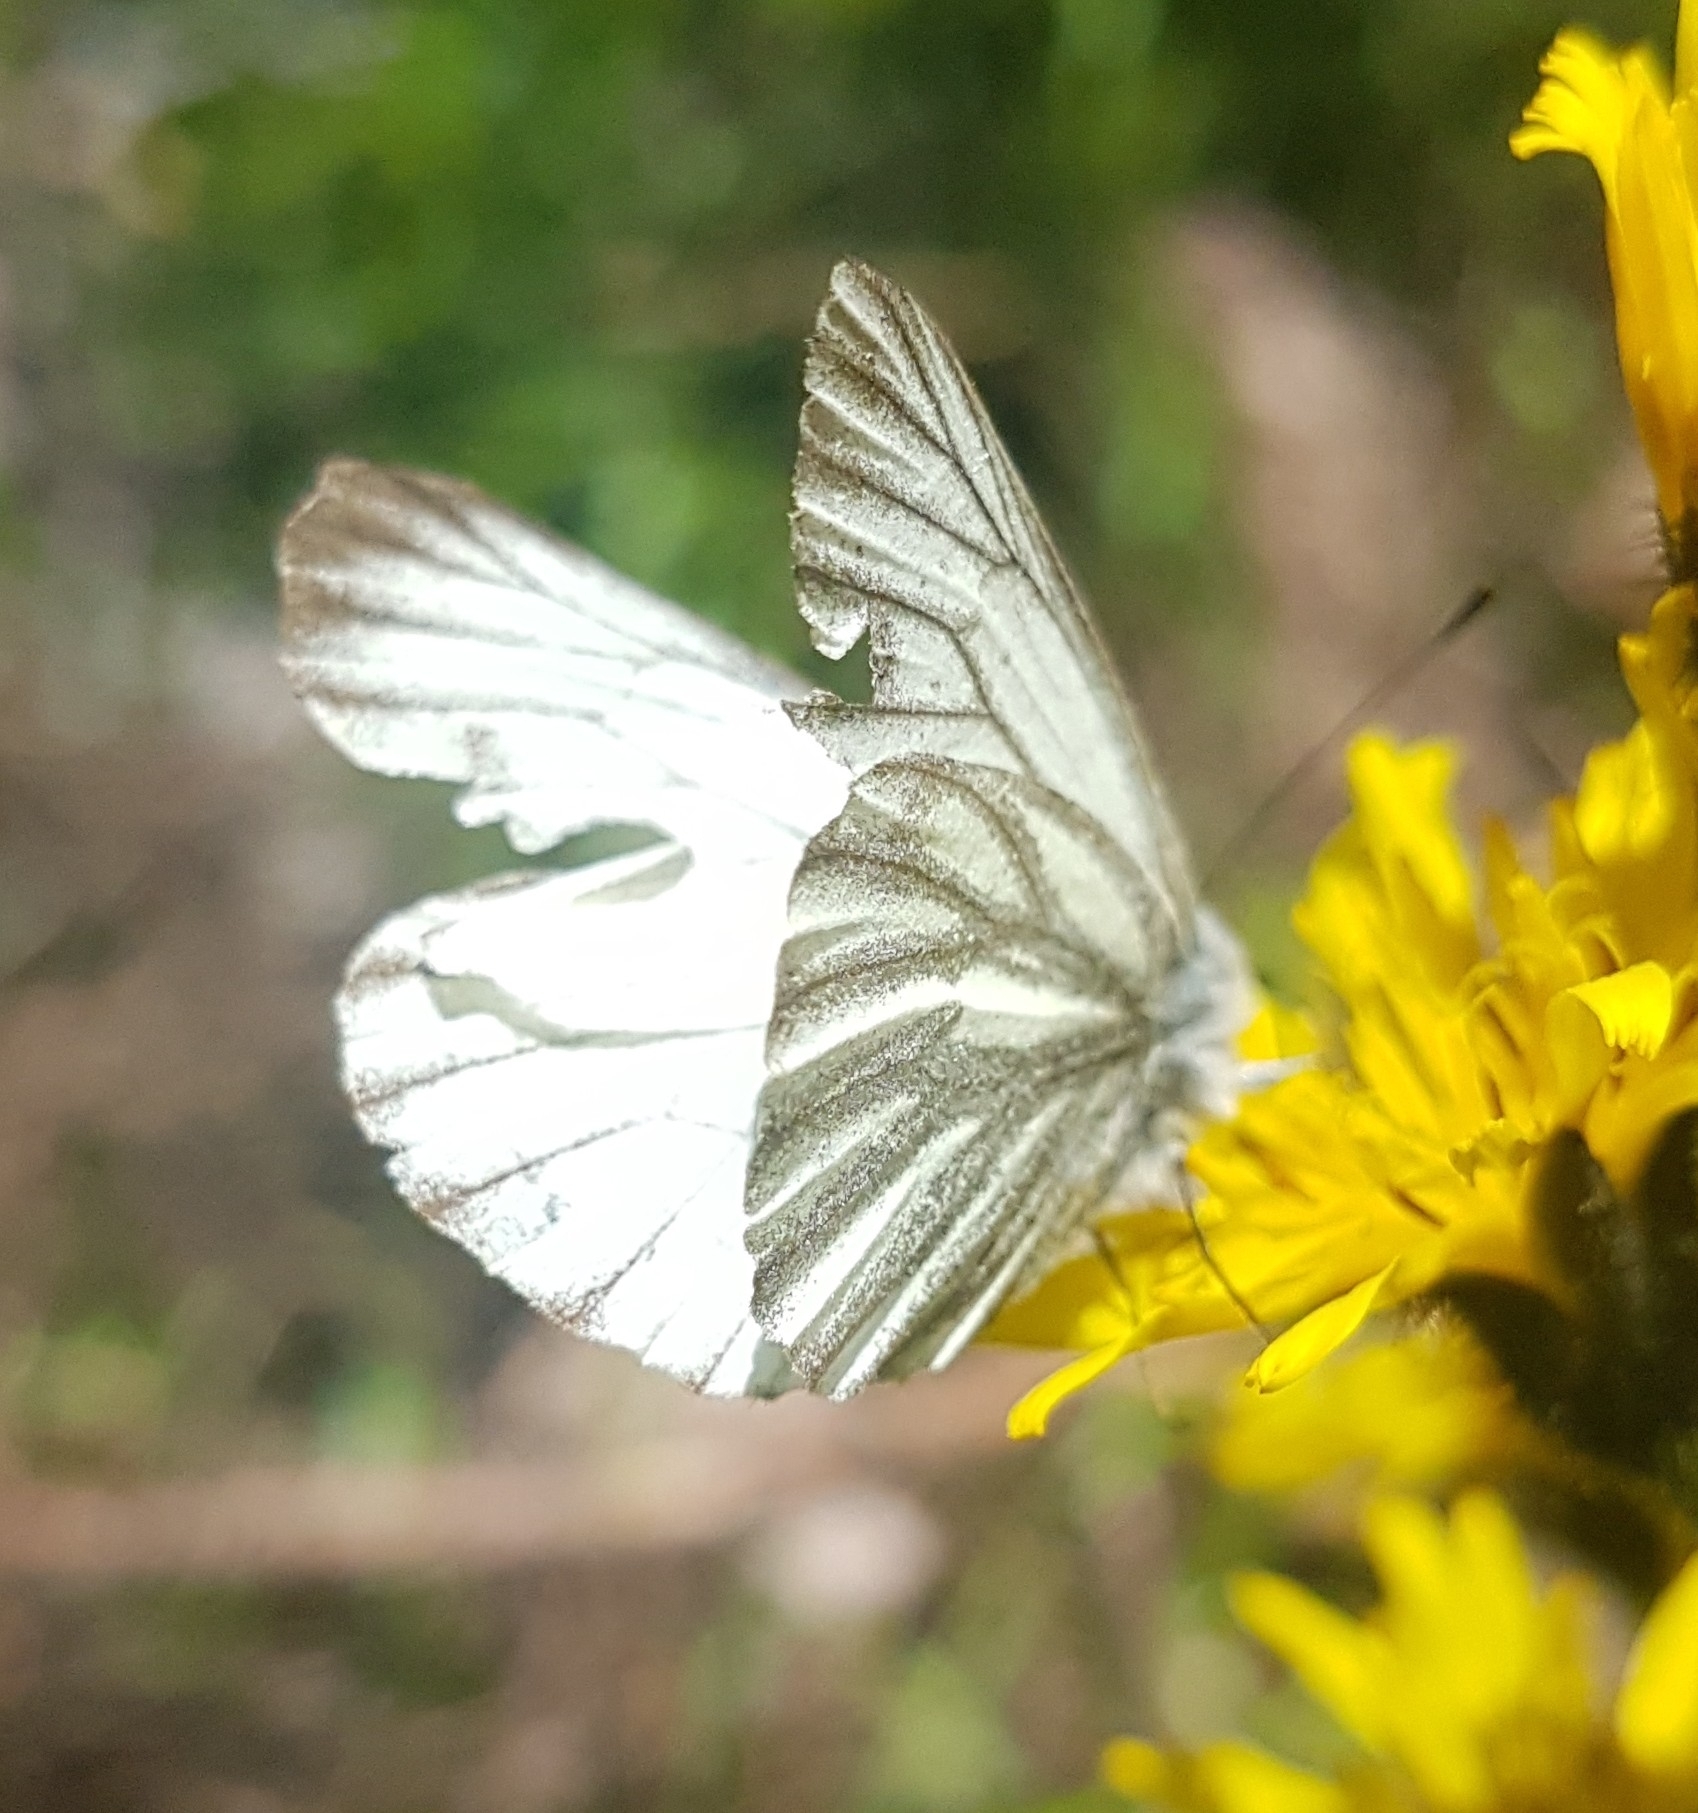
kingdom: Animalia
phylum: Arthropoda
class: Insecta
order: Lepidoptera
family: Pieridae
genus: Pieris
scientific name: Pieris bryoniae
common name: Mountain green-veined white
